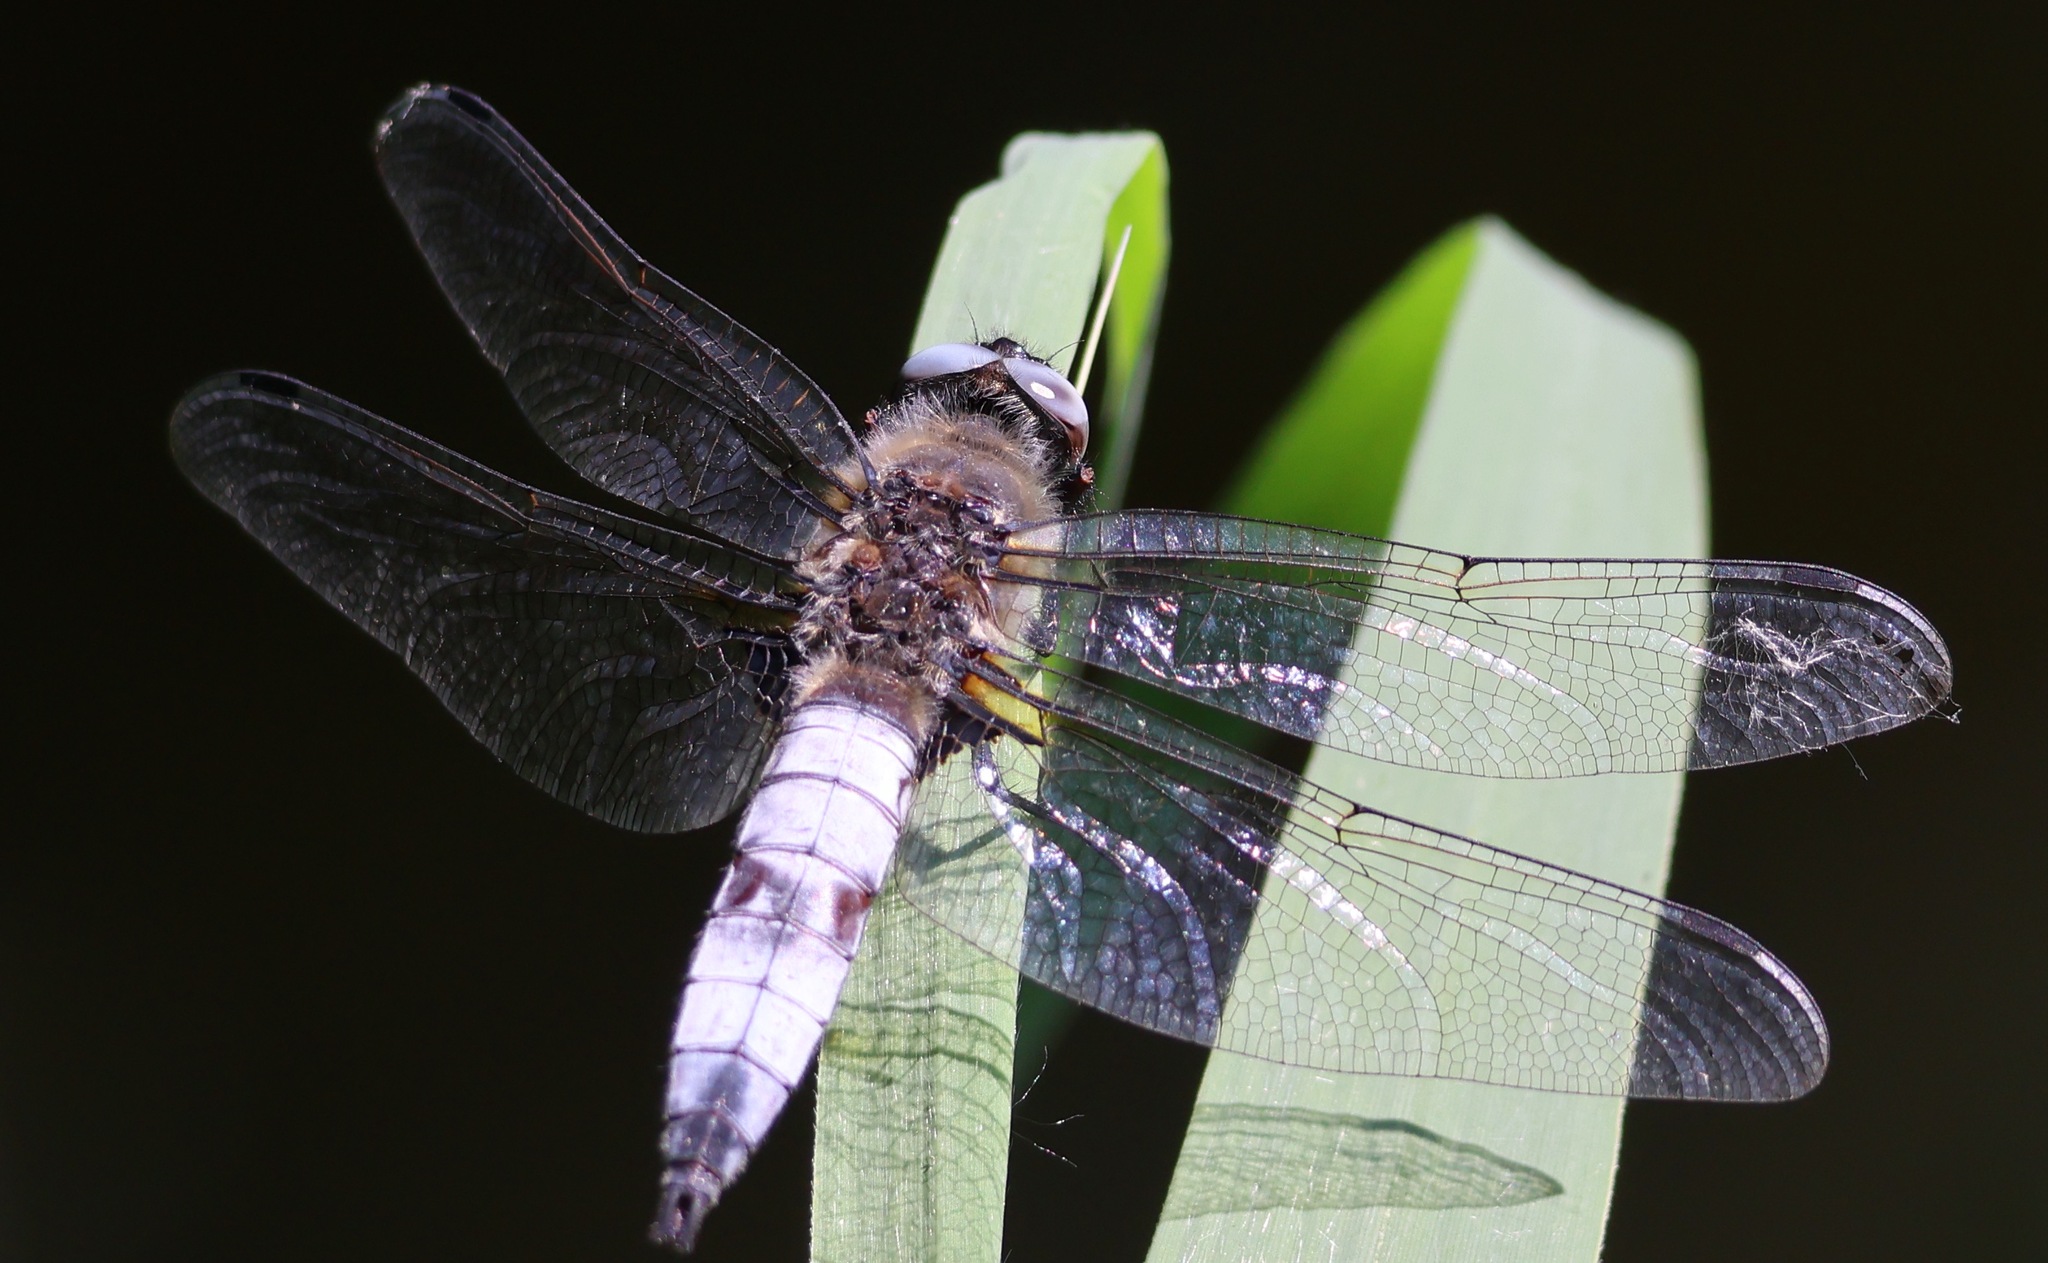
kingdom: Animalia
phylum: Arthropoda
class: Insecta
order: Odonata
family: Libellulidae
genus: Libellula
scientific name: Libellula fulva
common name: Blue chaser
